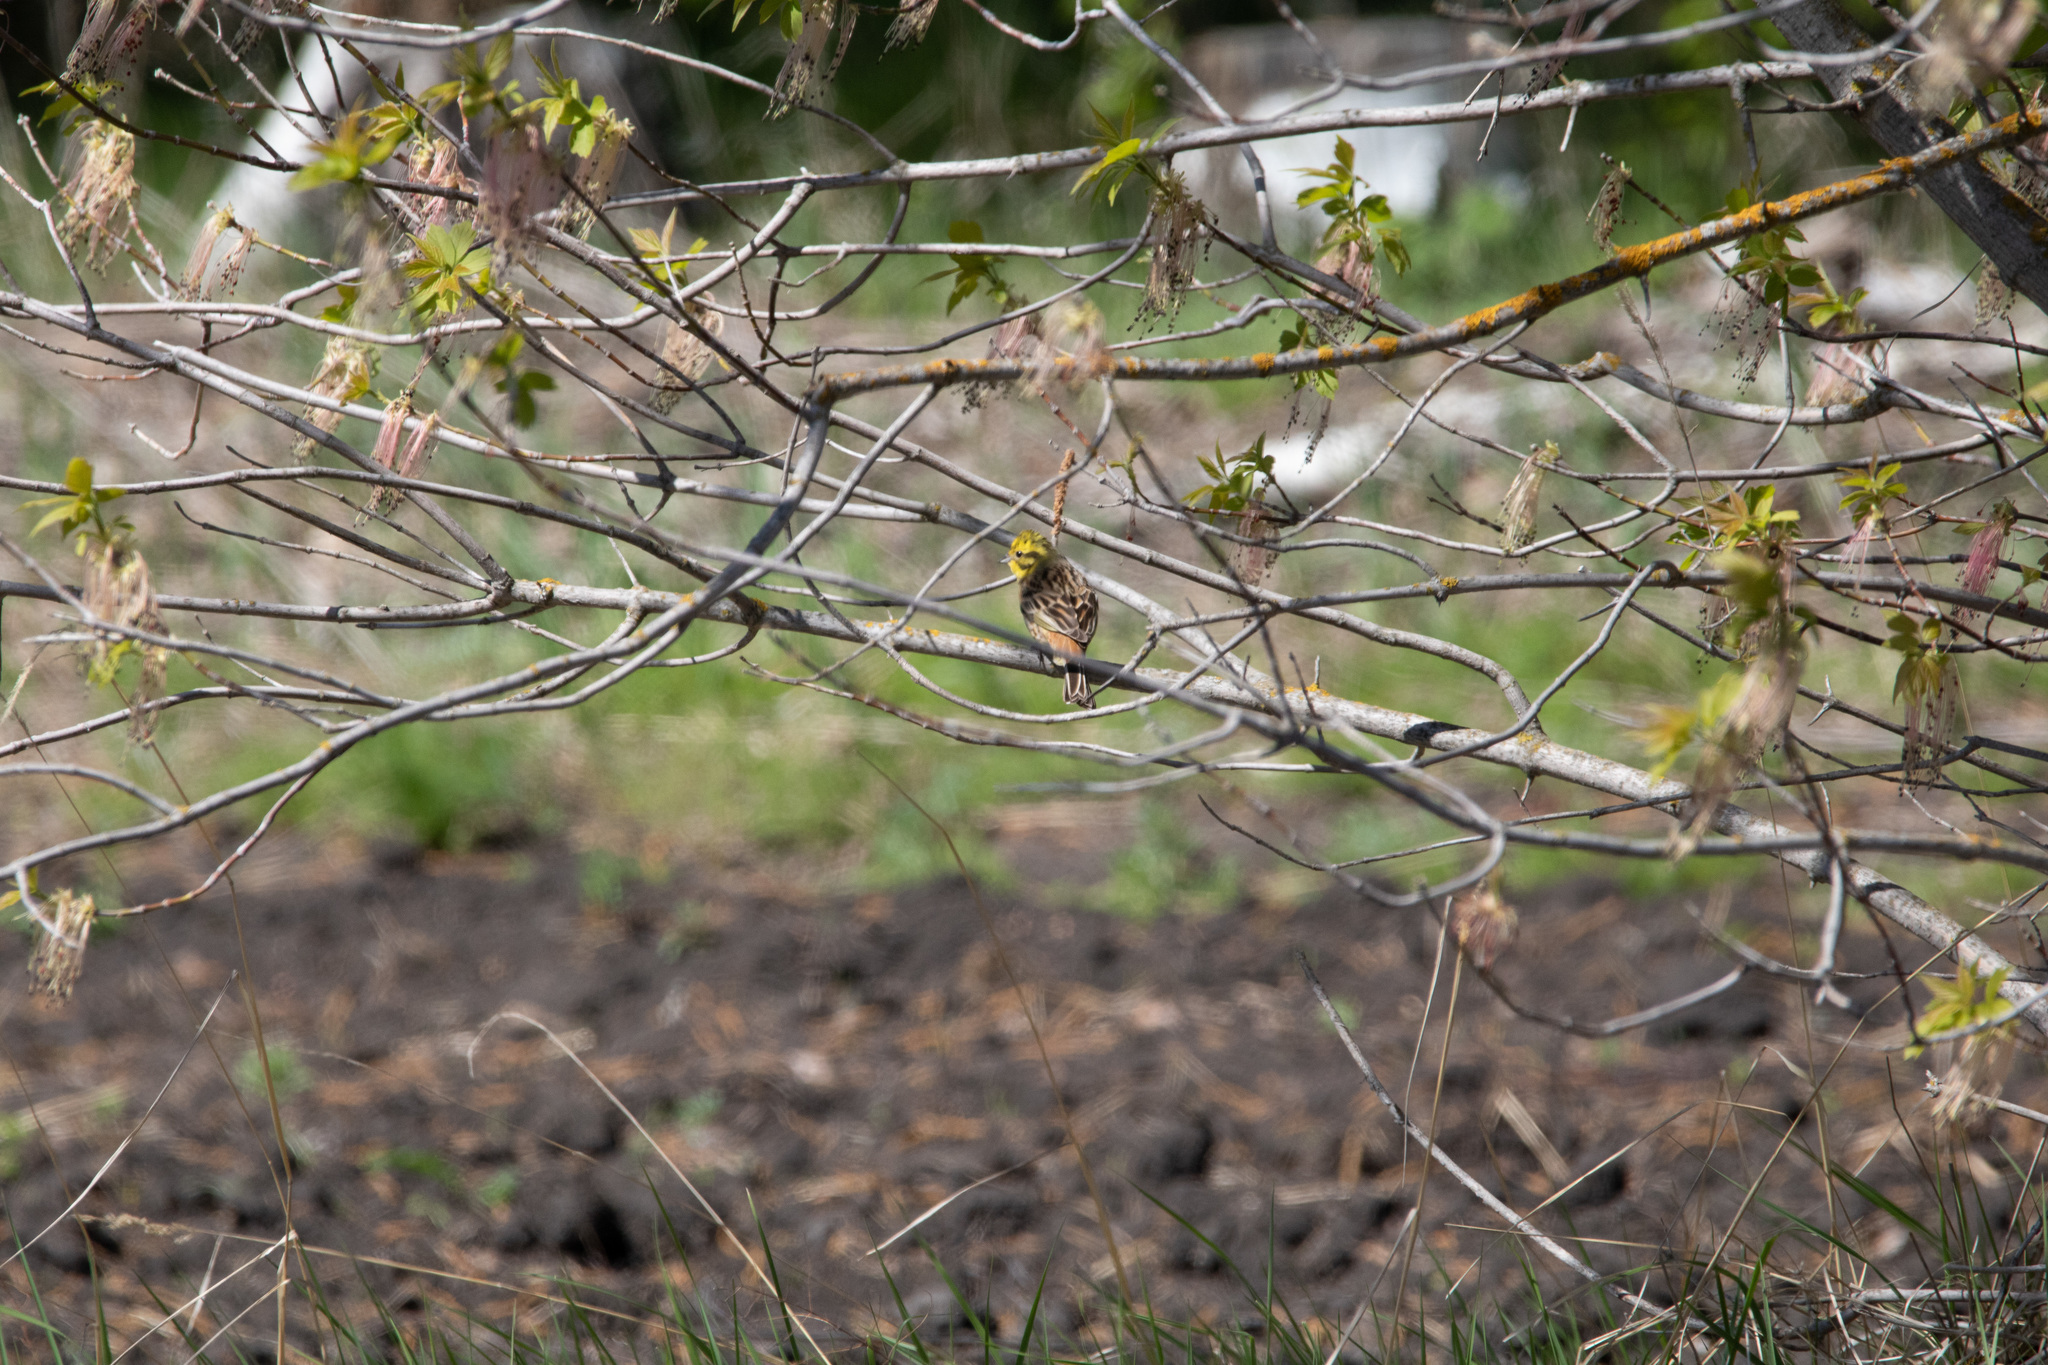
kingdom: Animalia
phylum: Chordata
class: Aves
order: Passeriformes
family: Emberizidae
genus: Emberiza
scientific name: Emberiza citrinella
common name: Yellowhammer
